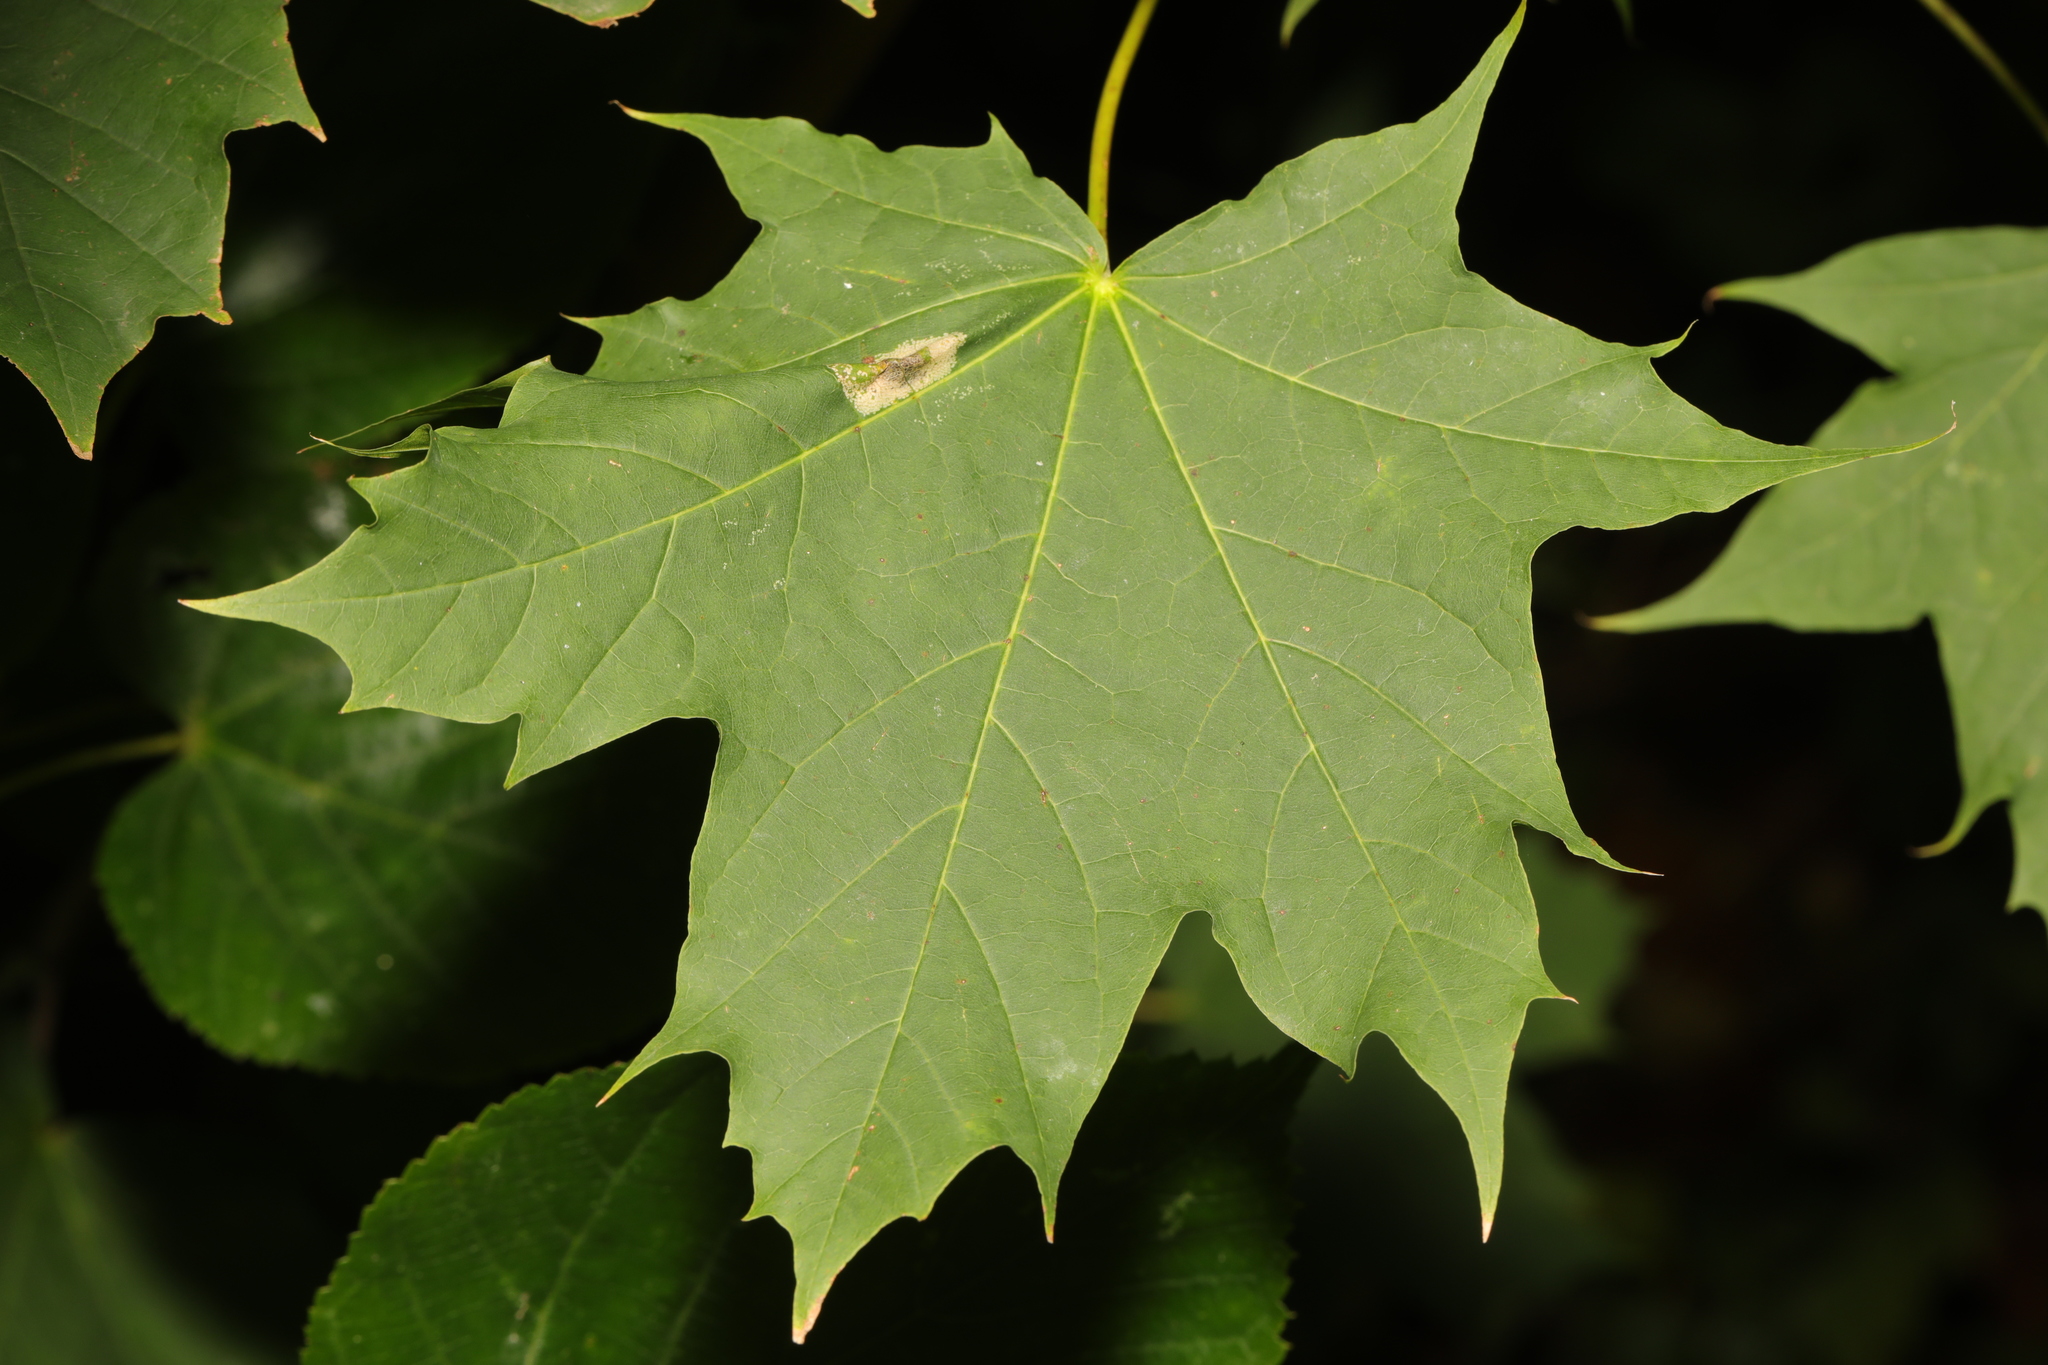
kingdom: Plantae
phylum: Tracheophyta
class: Magnoliopsida
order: Sapindales
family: Sapindaceae
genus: Acer
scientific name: Acer platanoides
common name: Norway maple
